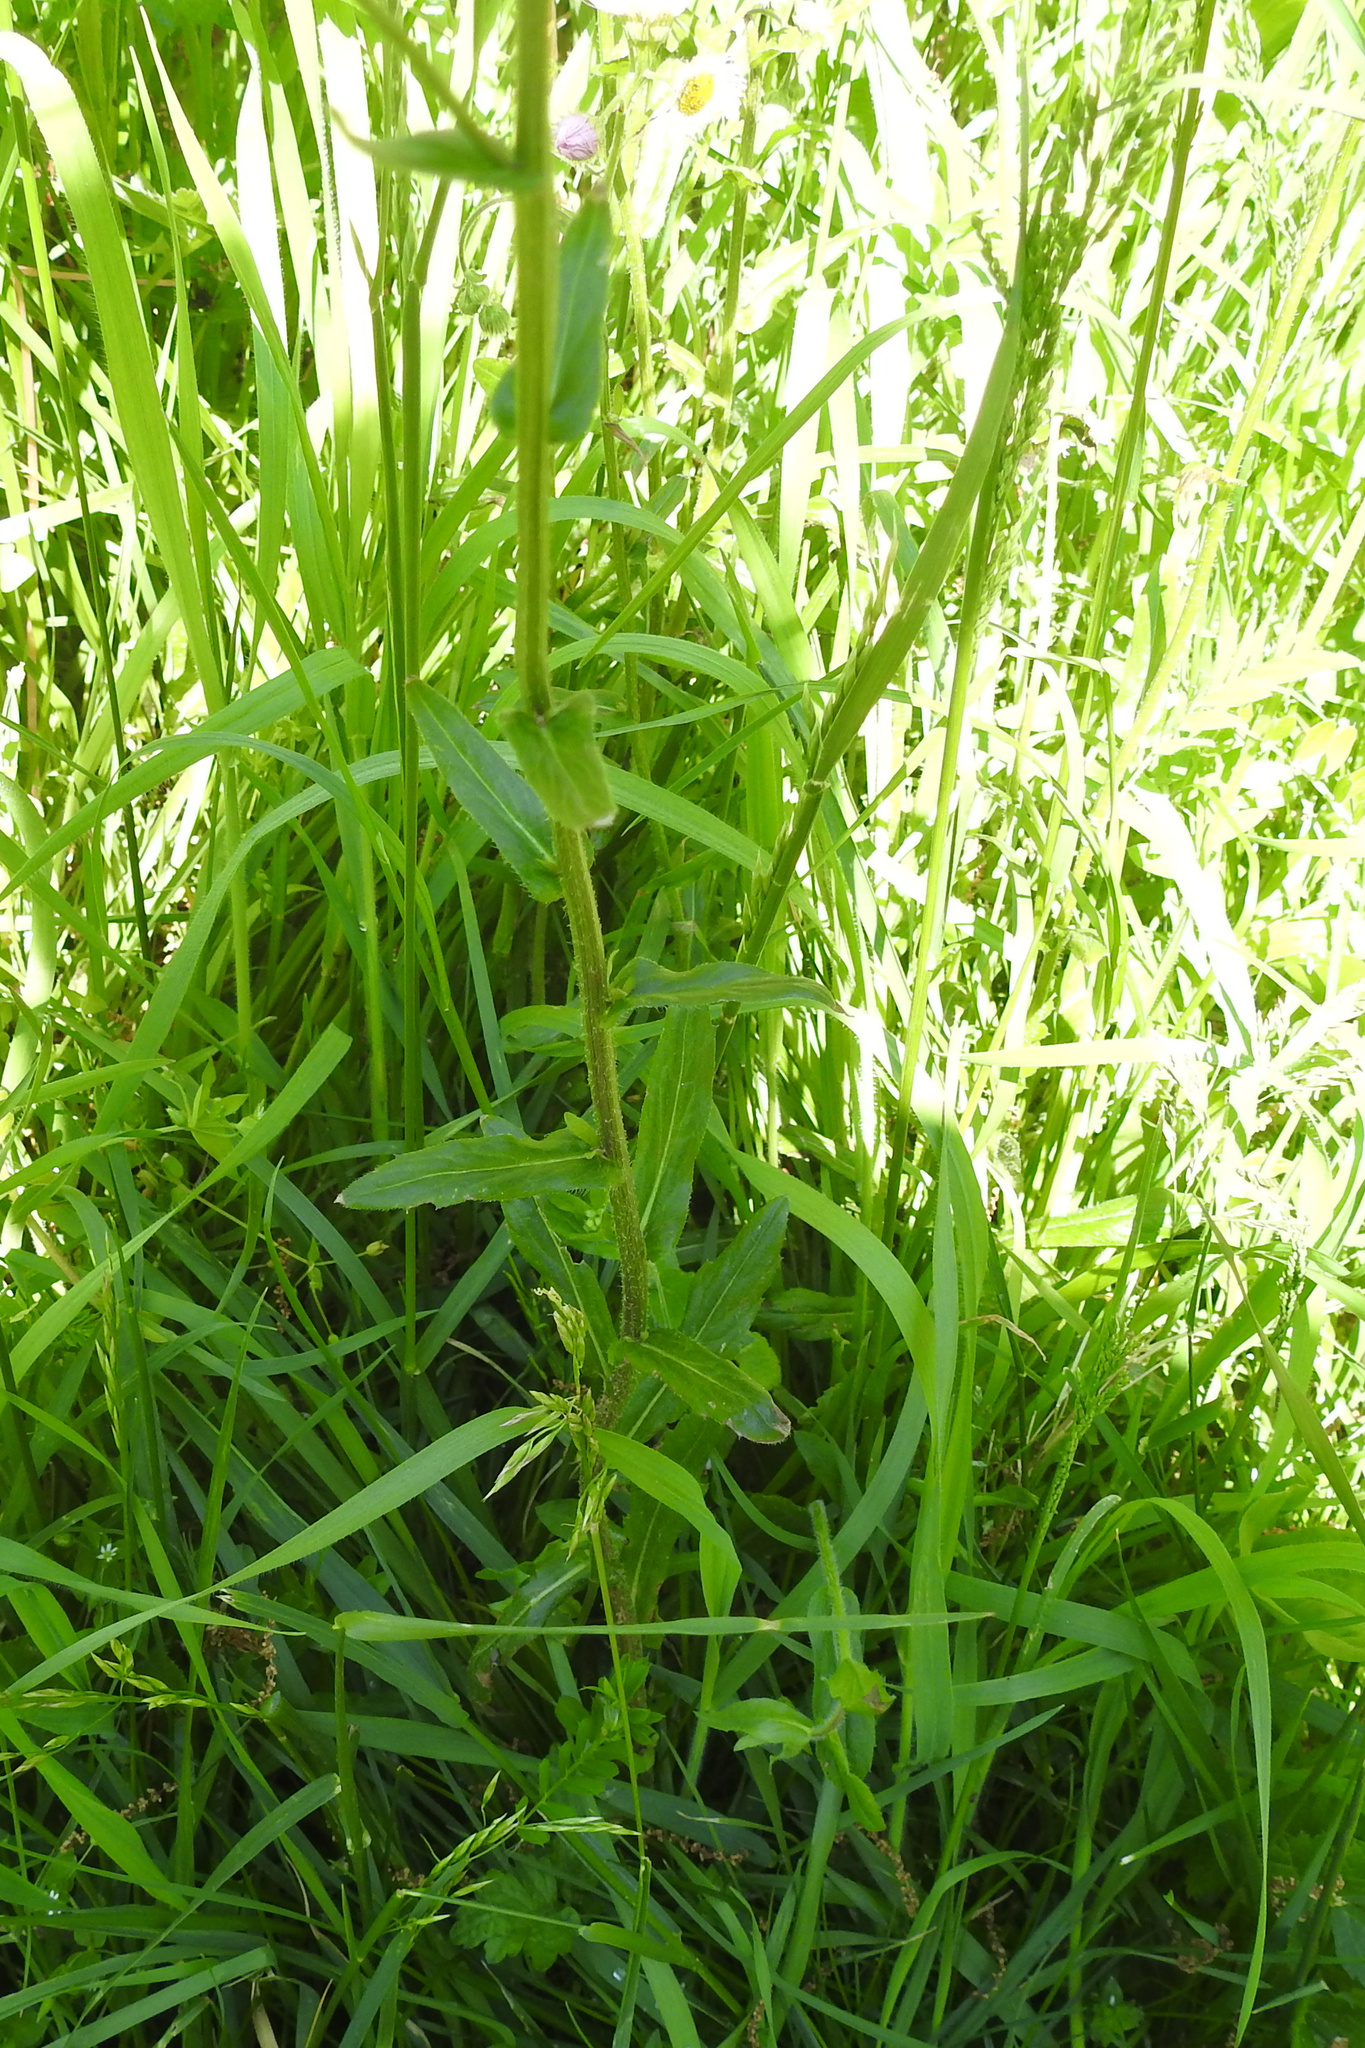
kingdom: Plantae
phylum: Tracheophyta
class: Magnoliopsida
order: Asterales
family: Asteraceae
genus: Erigeron
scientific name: Erigeron philadelphicus
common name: Robin's-plantain
